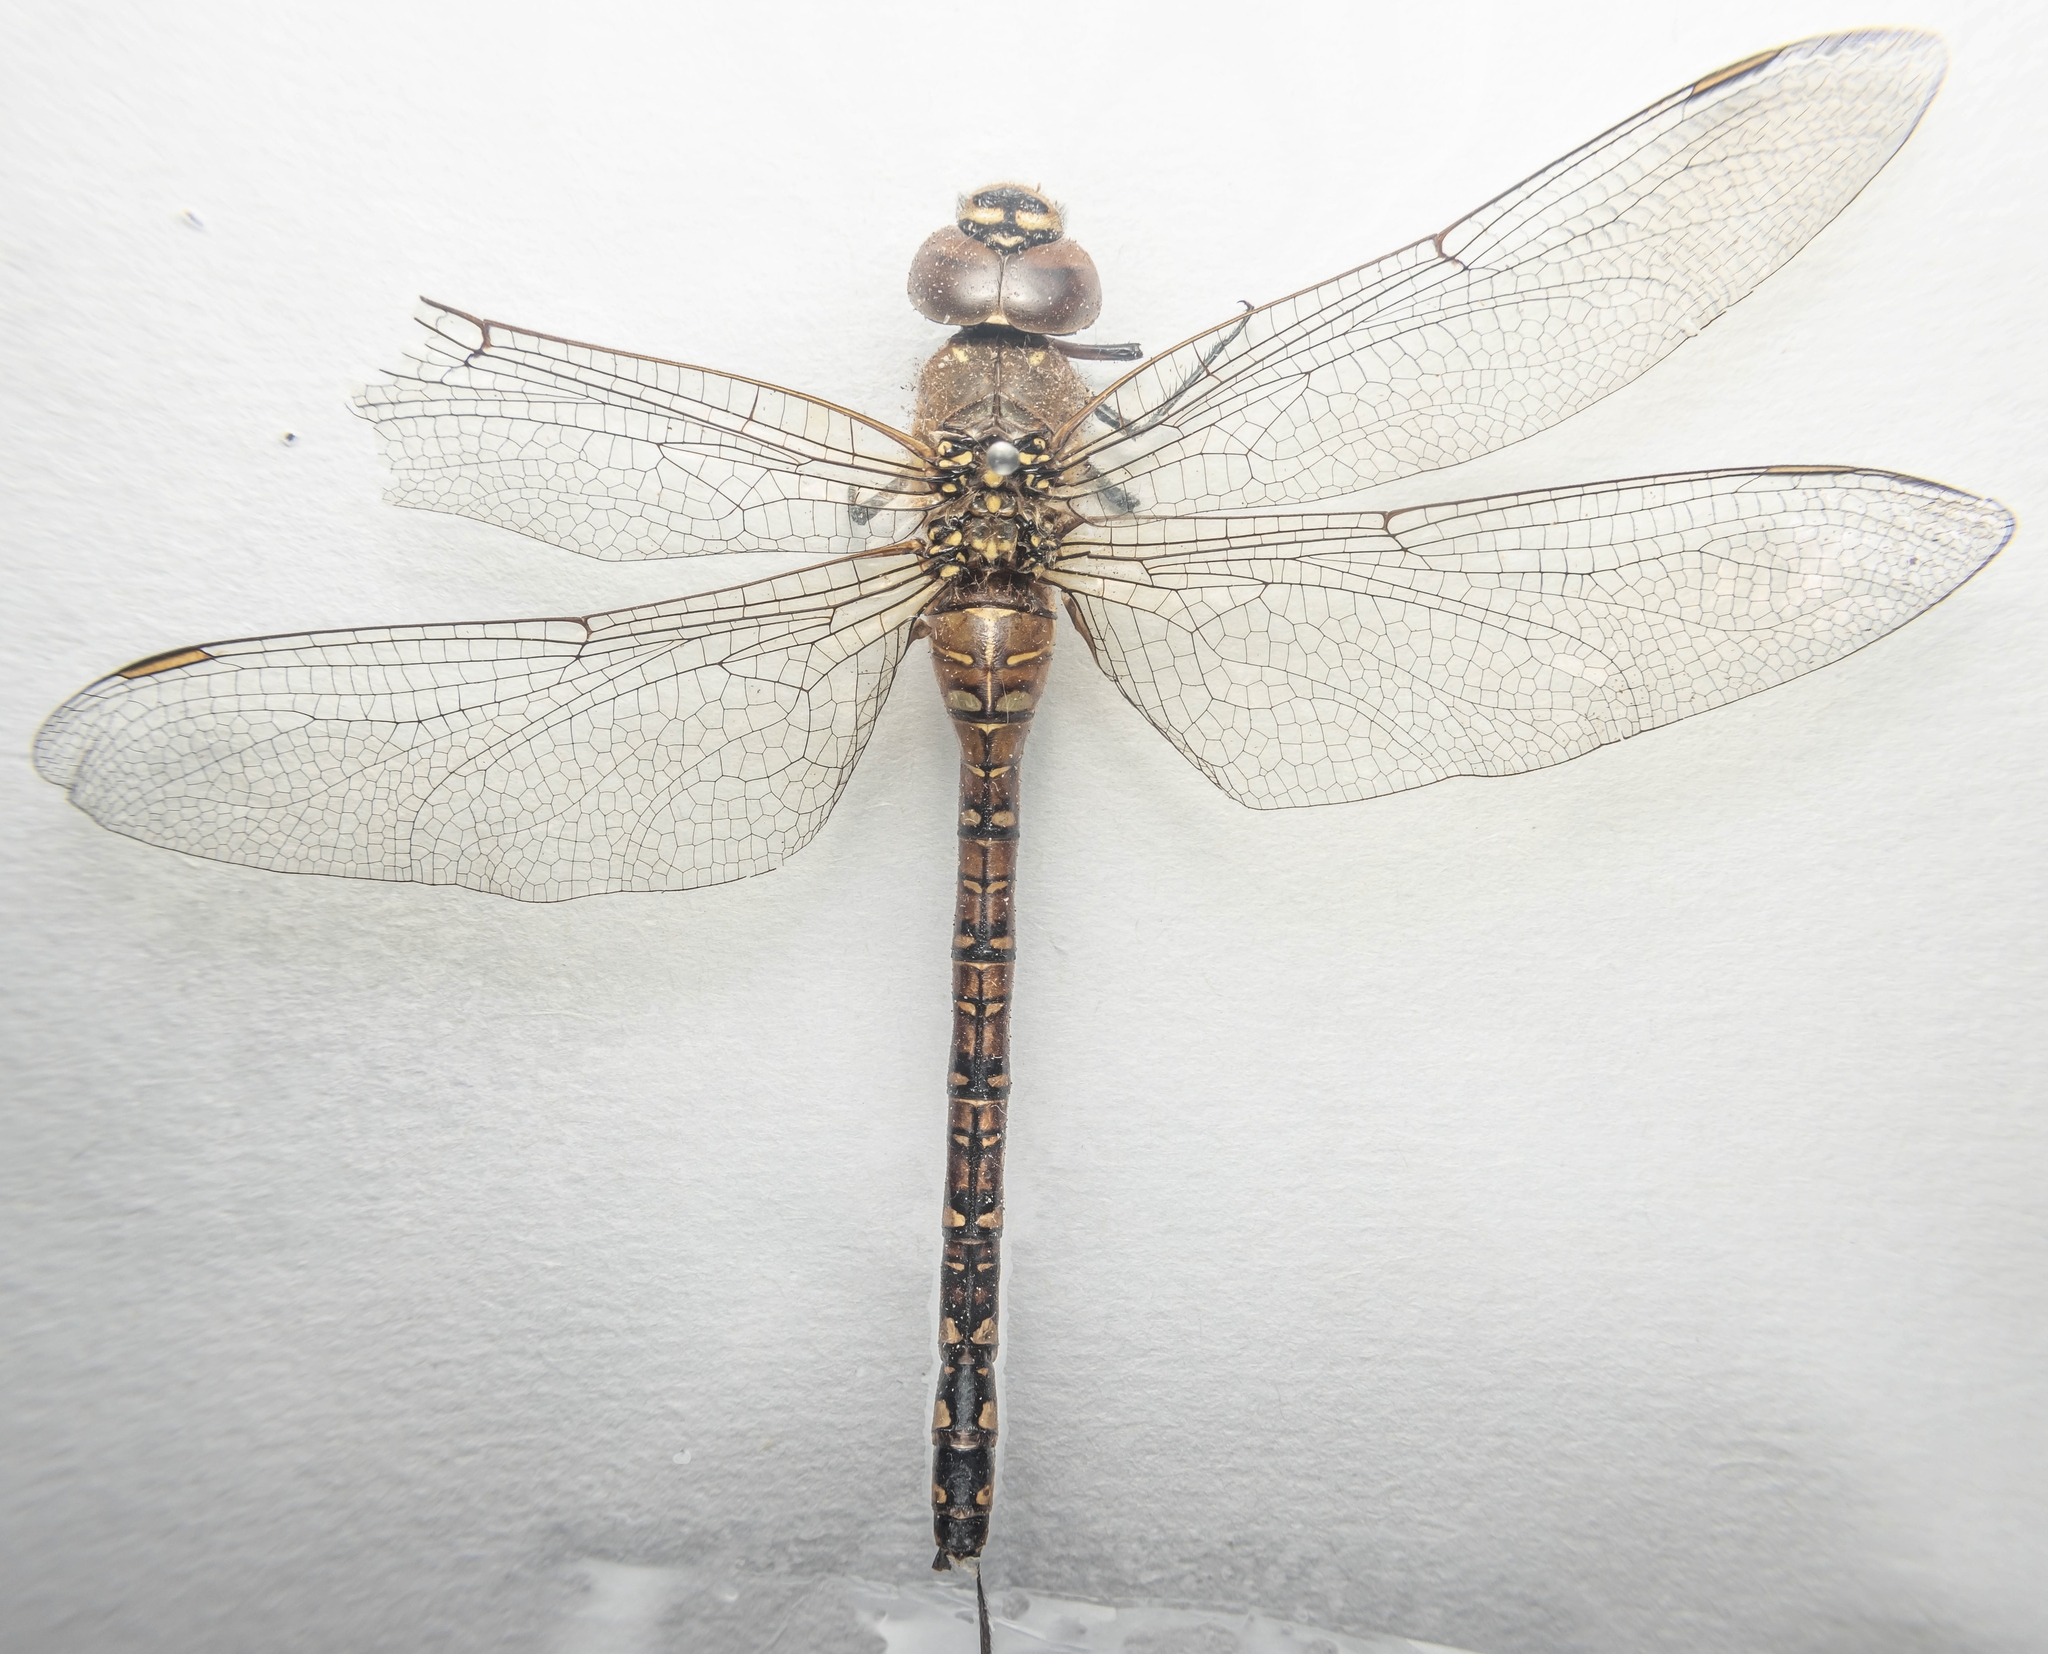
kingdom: Animalia
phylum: Arthropoda
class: Insecta
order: Odonata
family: Aeshnidae
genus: Aeshna
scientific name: Aeshna mixta
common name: Migrant hawker
